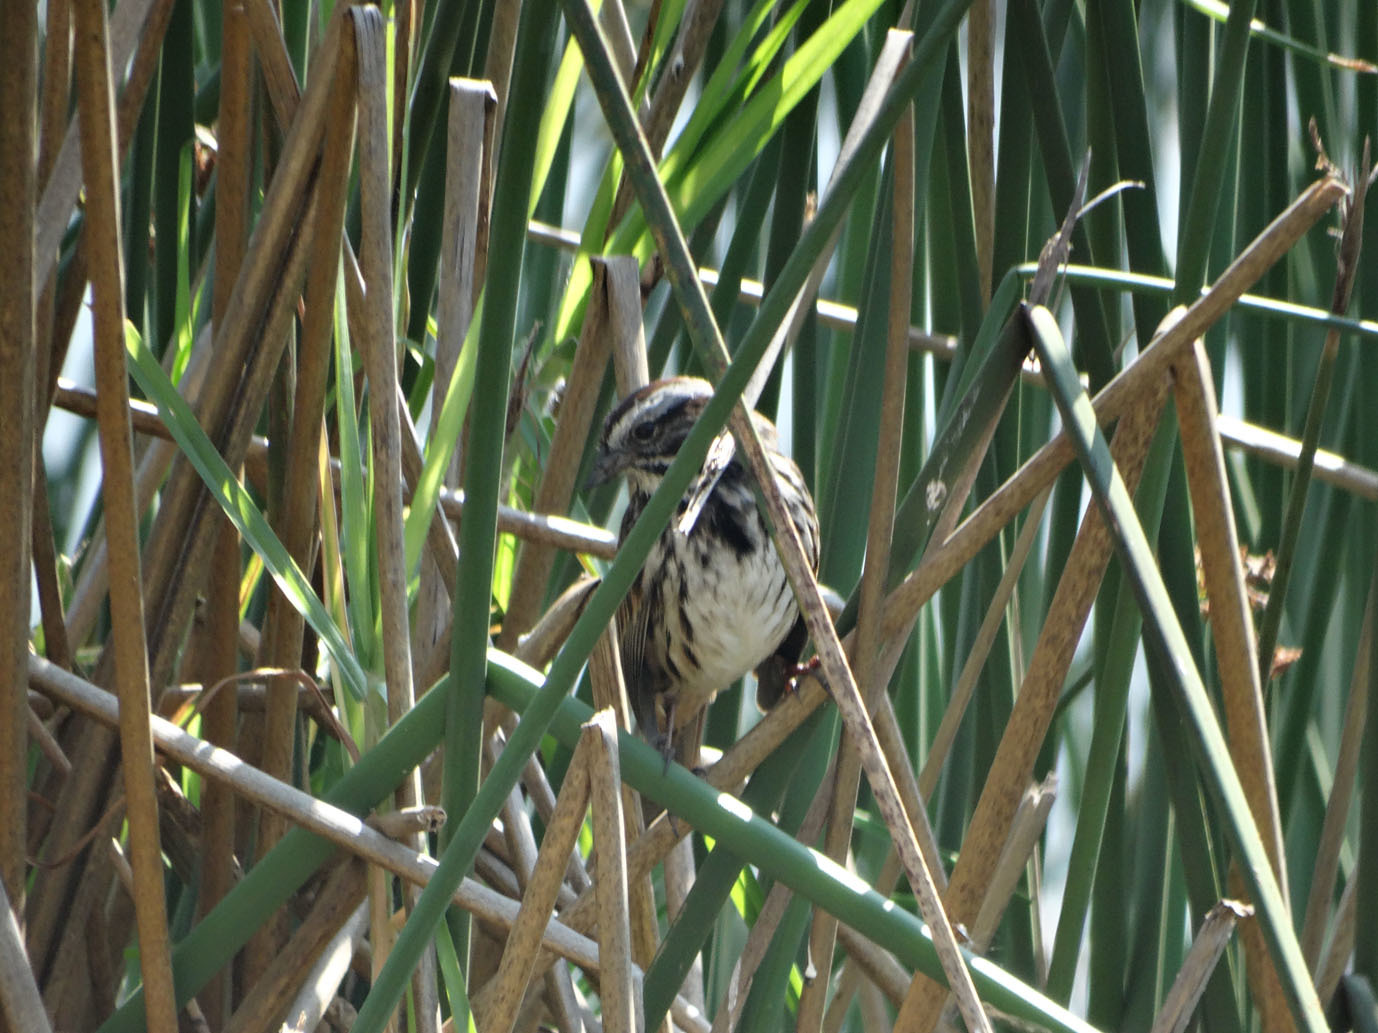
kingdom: Animalia
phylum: Chordata
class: Aves
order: Passeriformes
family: Passerellidae
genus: Melospiza
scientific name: Melospiza melodia
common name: Song sparrow
